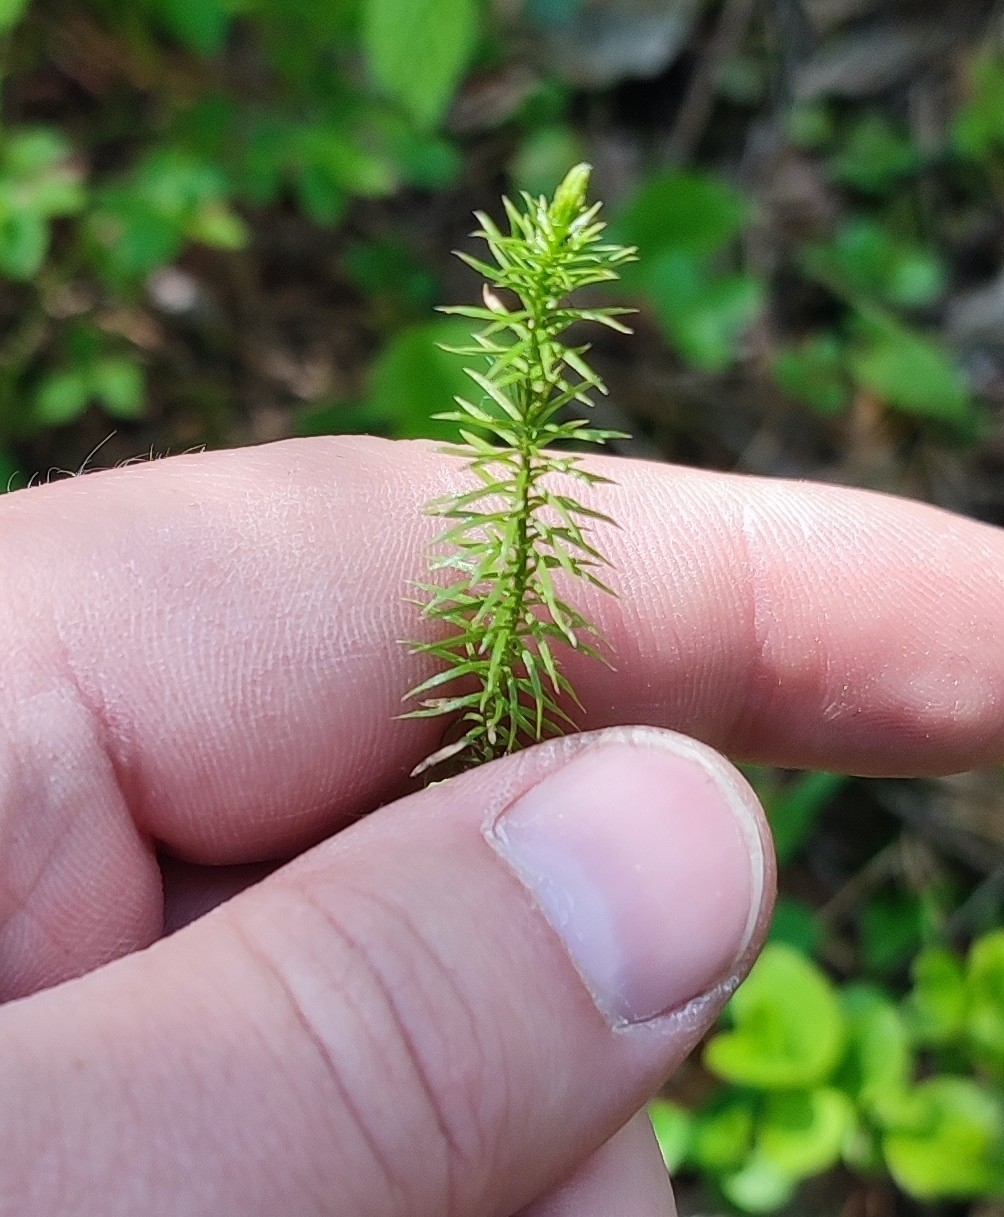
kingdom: Plantae
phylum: Tracheophyta
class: Lycopodiopsida
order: Lycopodiales
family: Lycopodiaceae
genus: Spinulum
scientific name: Spinulum annotinum
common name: Interrupted club-moss
